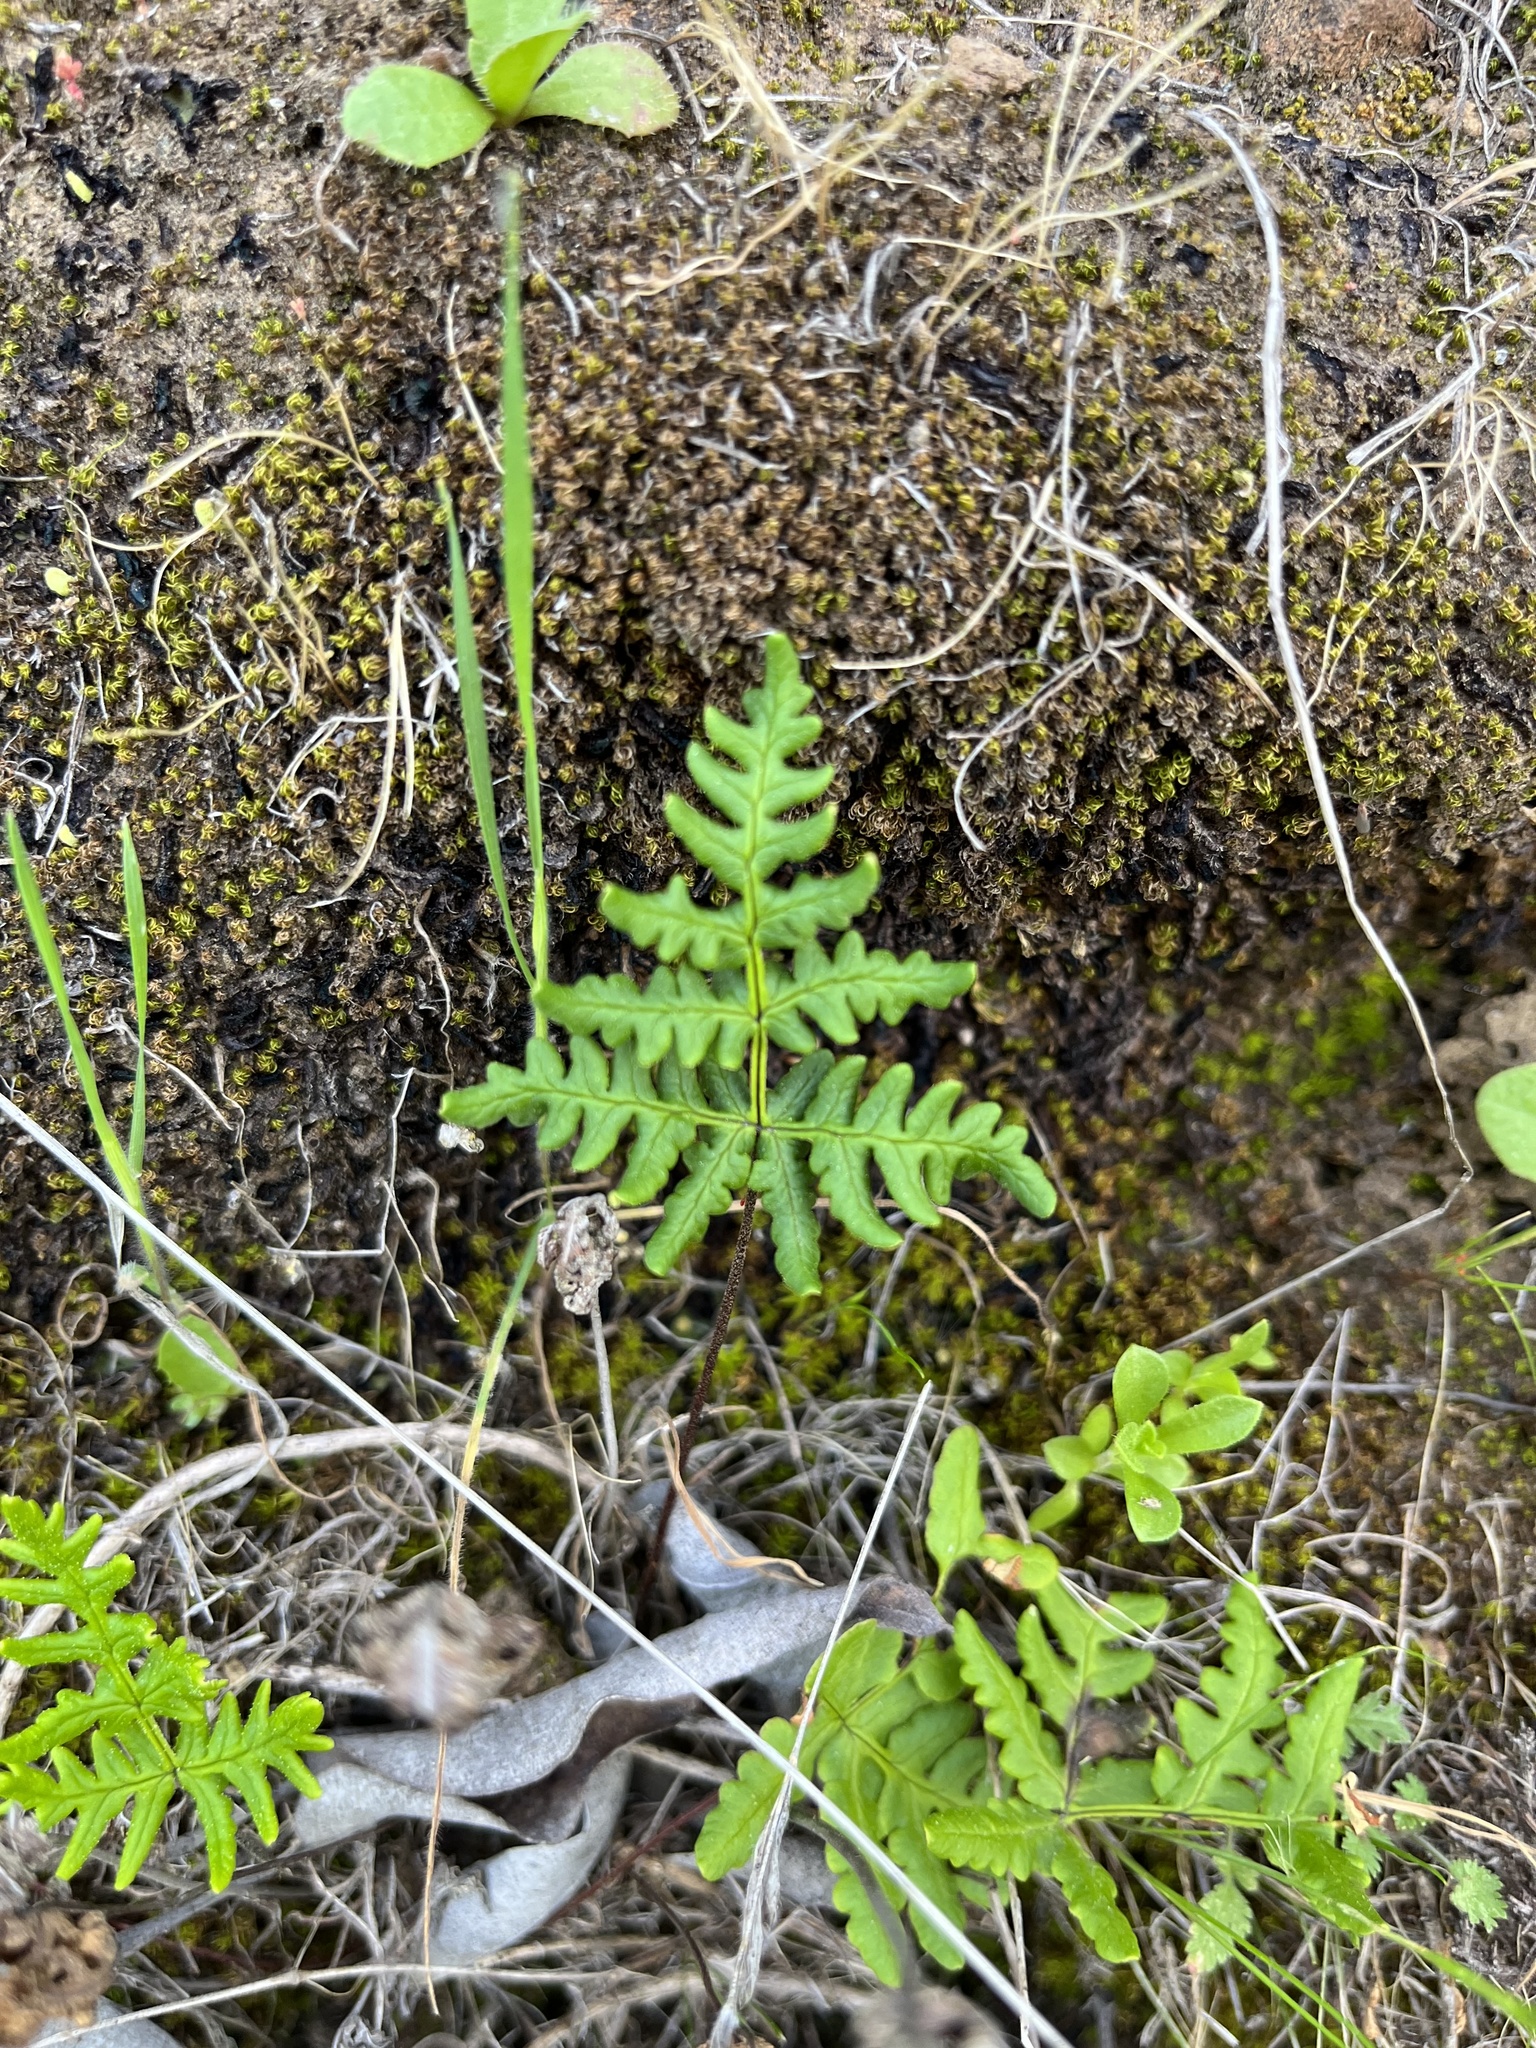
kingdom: Plantae
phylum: Tracheophyta
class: Polypodiopsida
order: Polypodiales
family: Pteridaceae
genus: Pentagramma
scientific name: Pentagramma triangularis
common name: Gold fern
